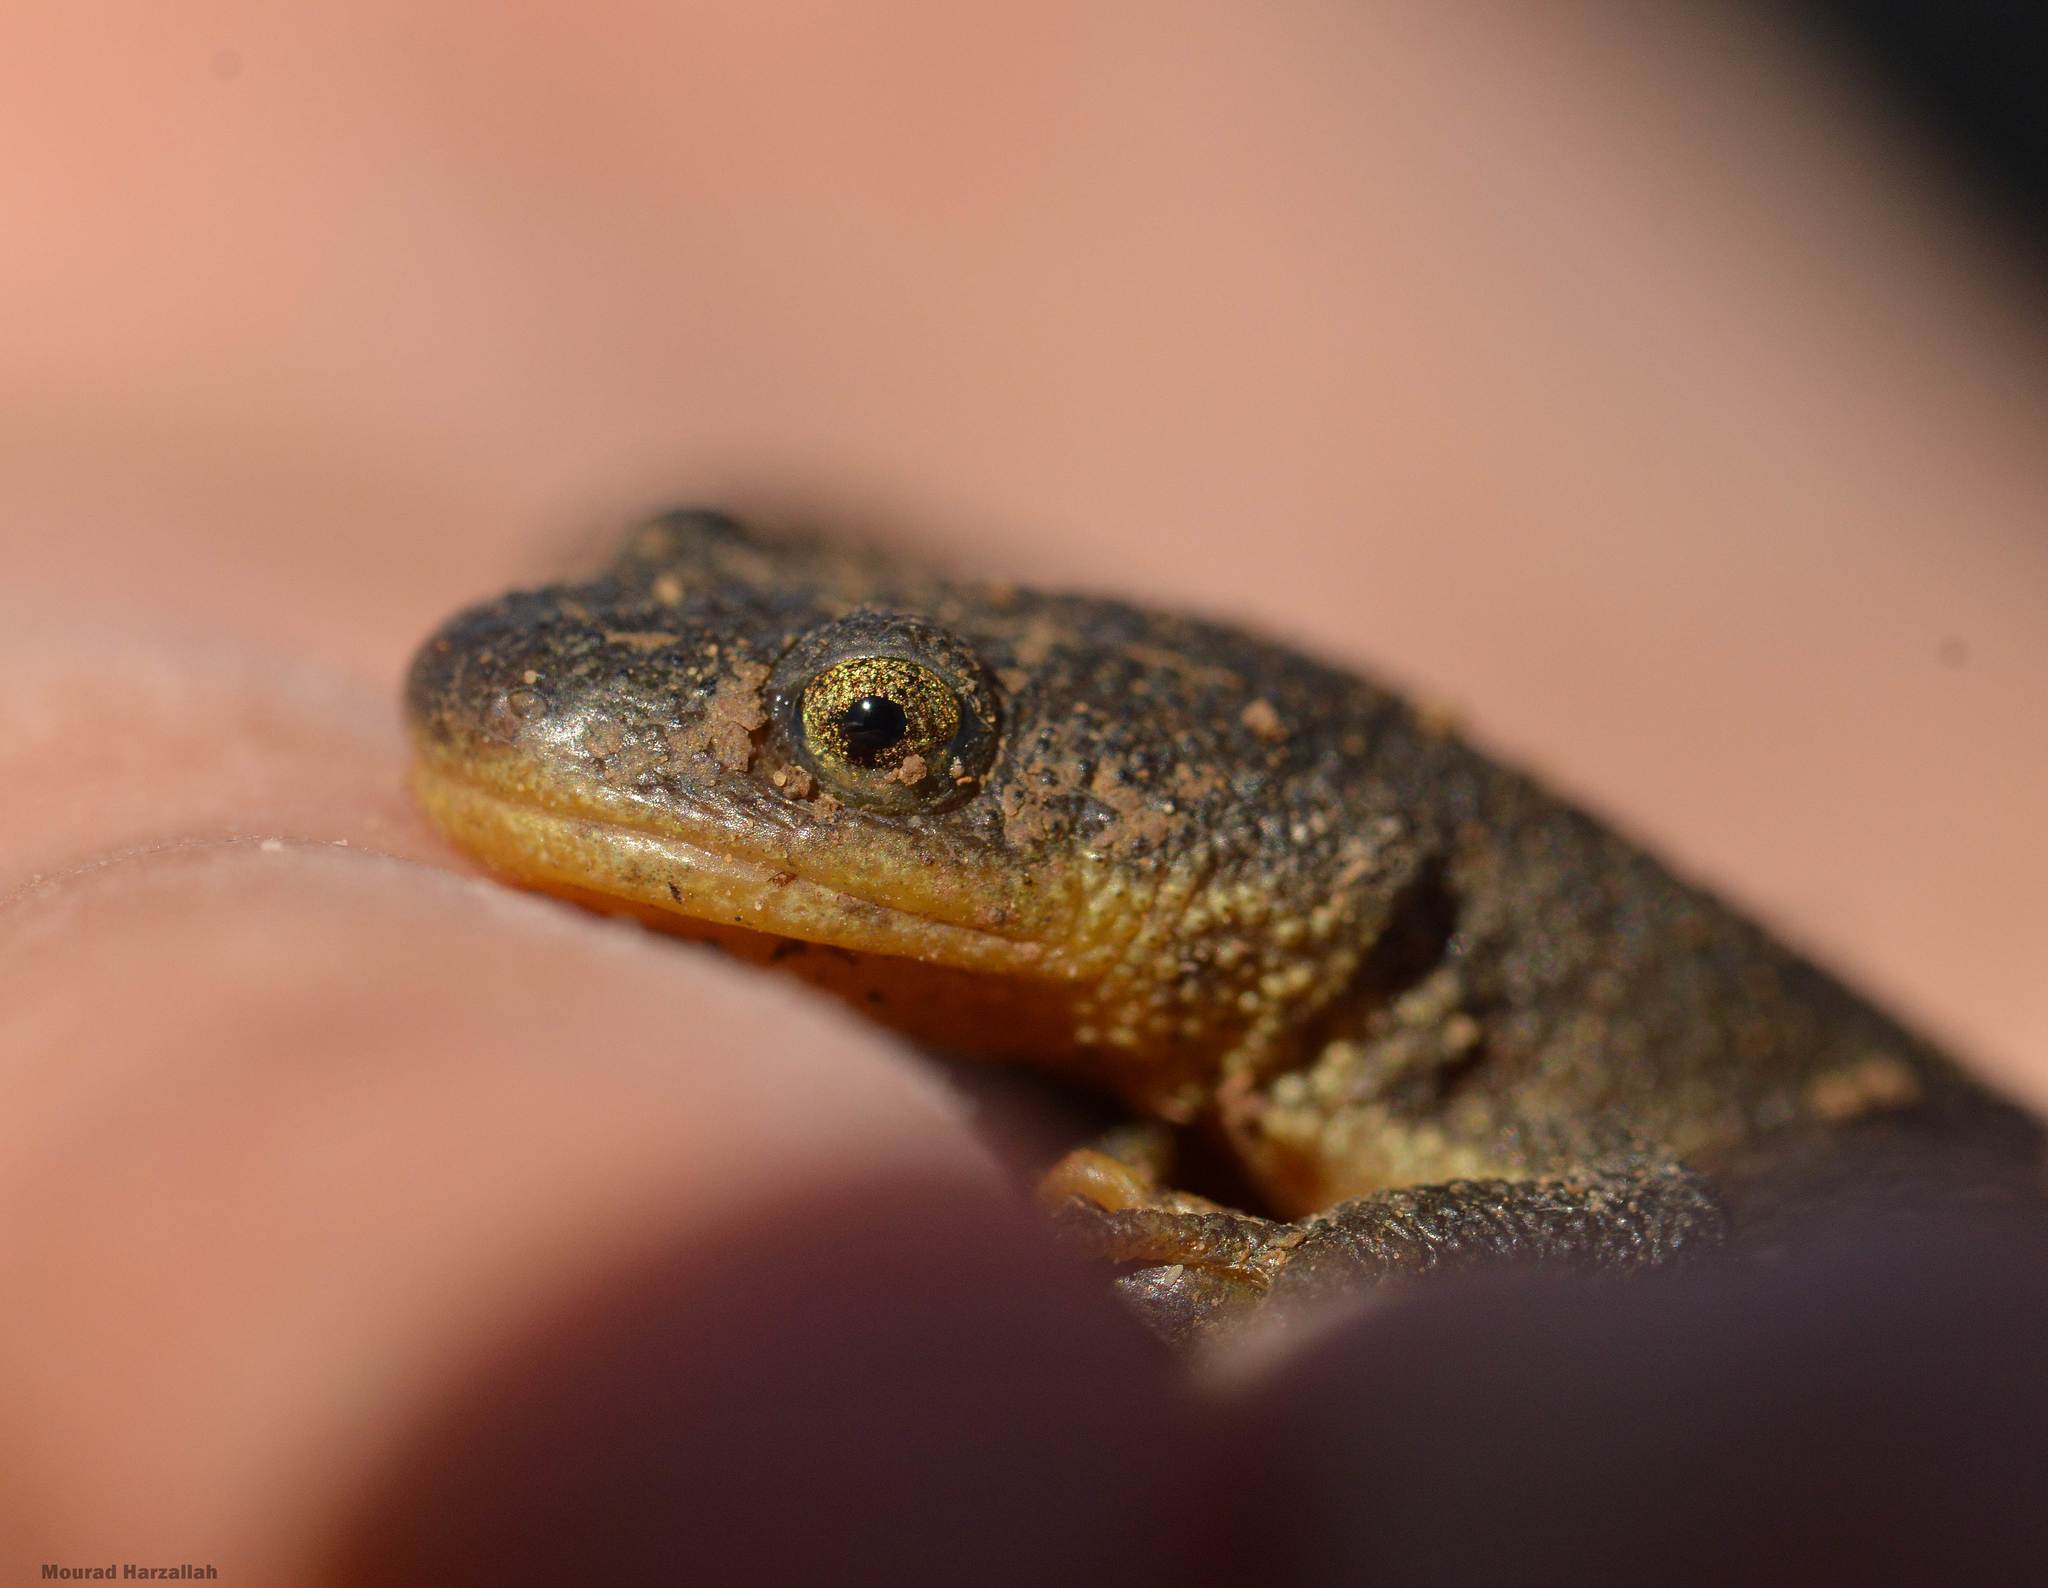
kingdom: Animalia
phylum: Chordata
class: Amphibia
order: Caudata
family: Salamandridae
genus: Pleurodeles
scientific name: Pleurodeles nebulosus
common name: Algerian ribbed newt
